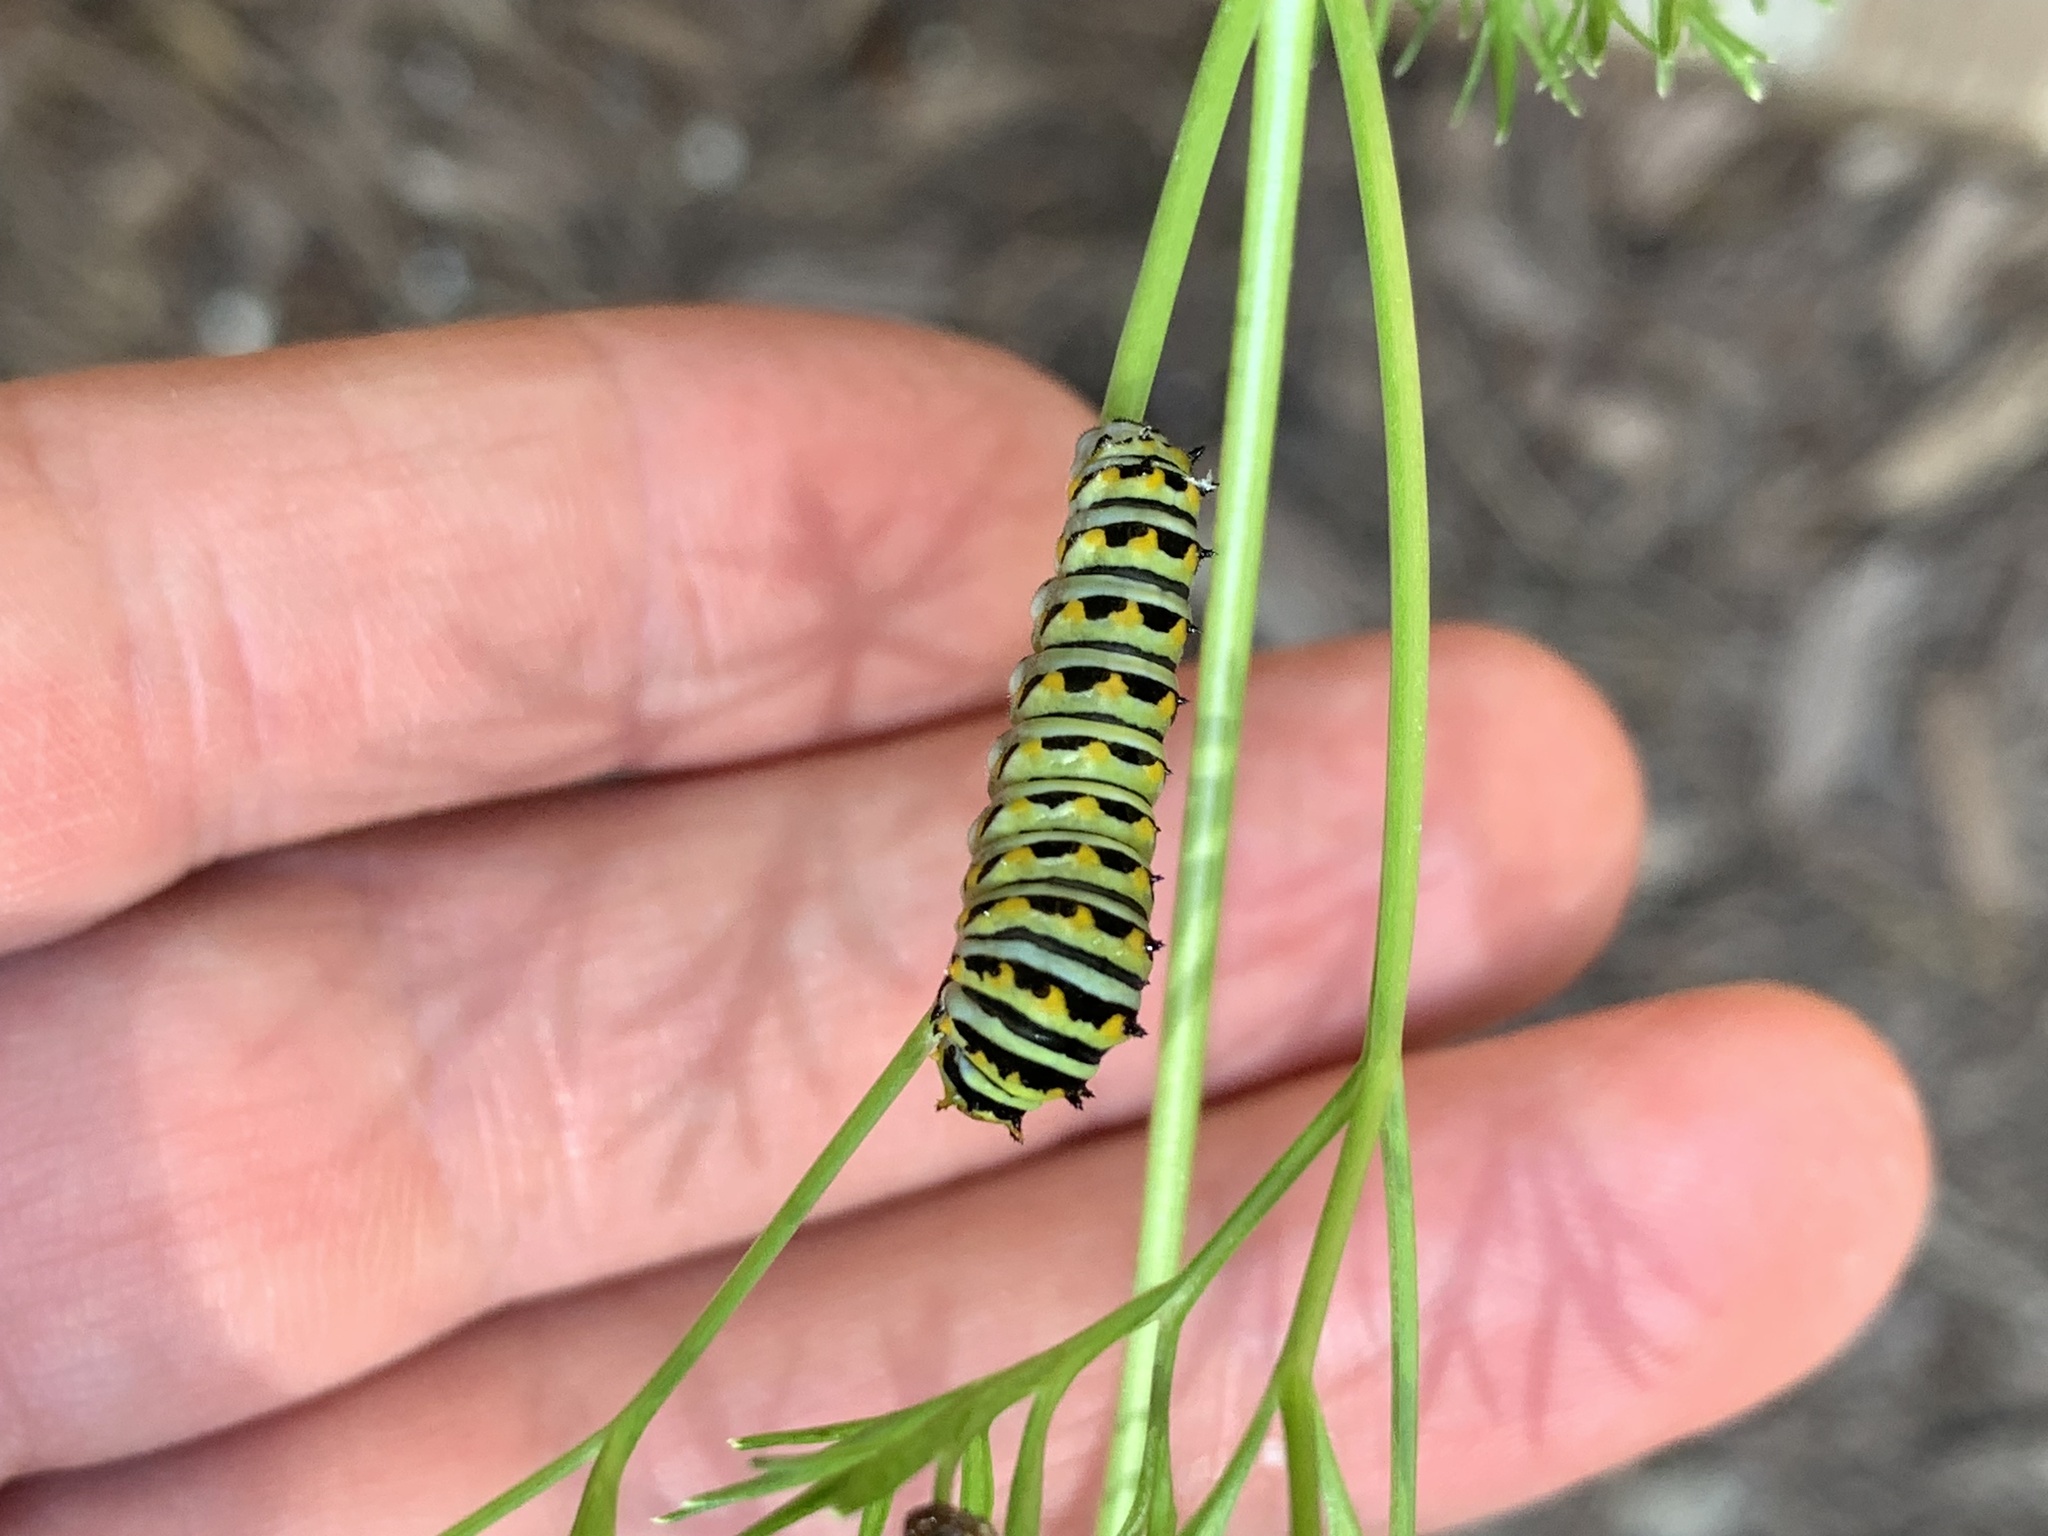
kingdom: Animalia
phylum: Arthropoda
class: Insecta
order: Lepidoptera
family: Papilionidae
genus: Papilio
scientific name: Papilio polyxenes
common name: Black swallowtail
